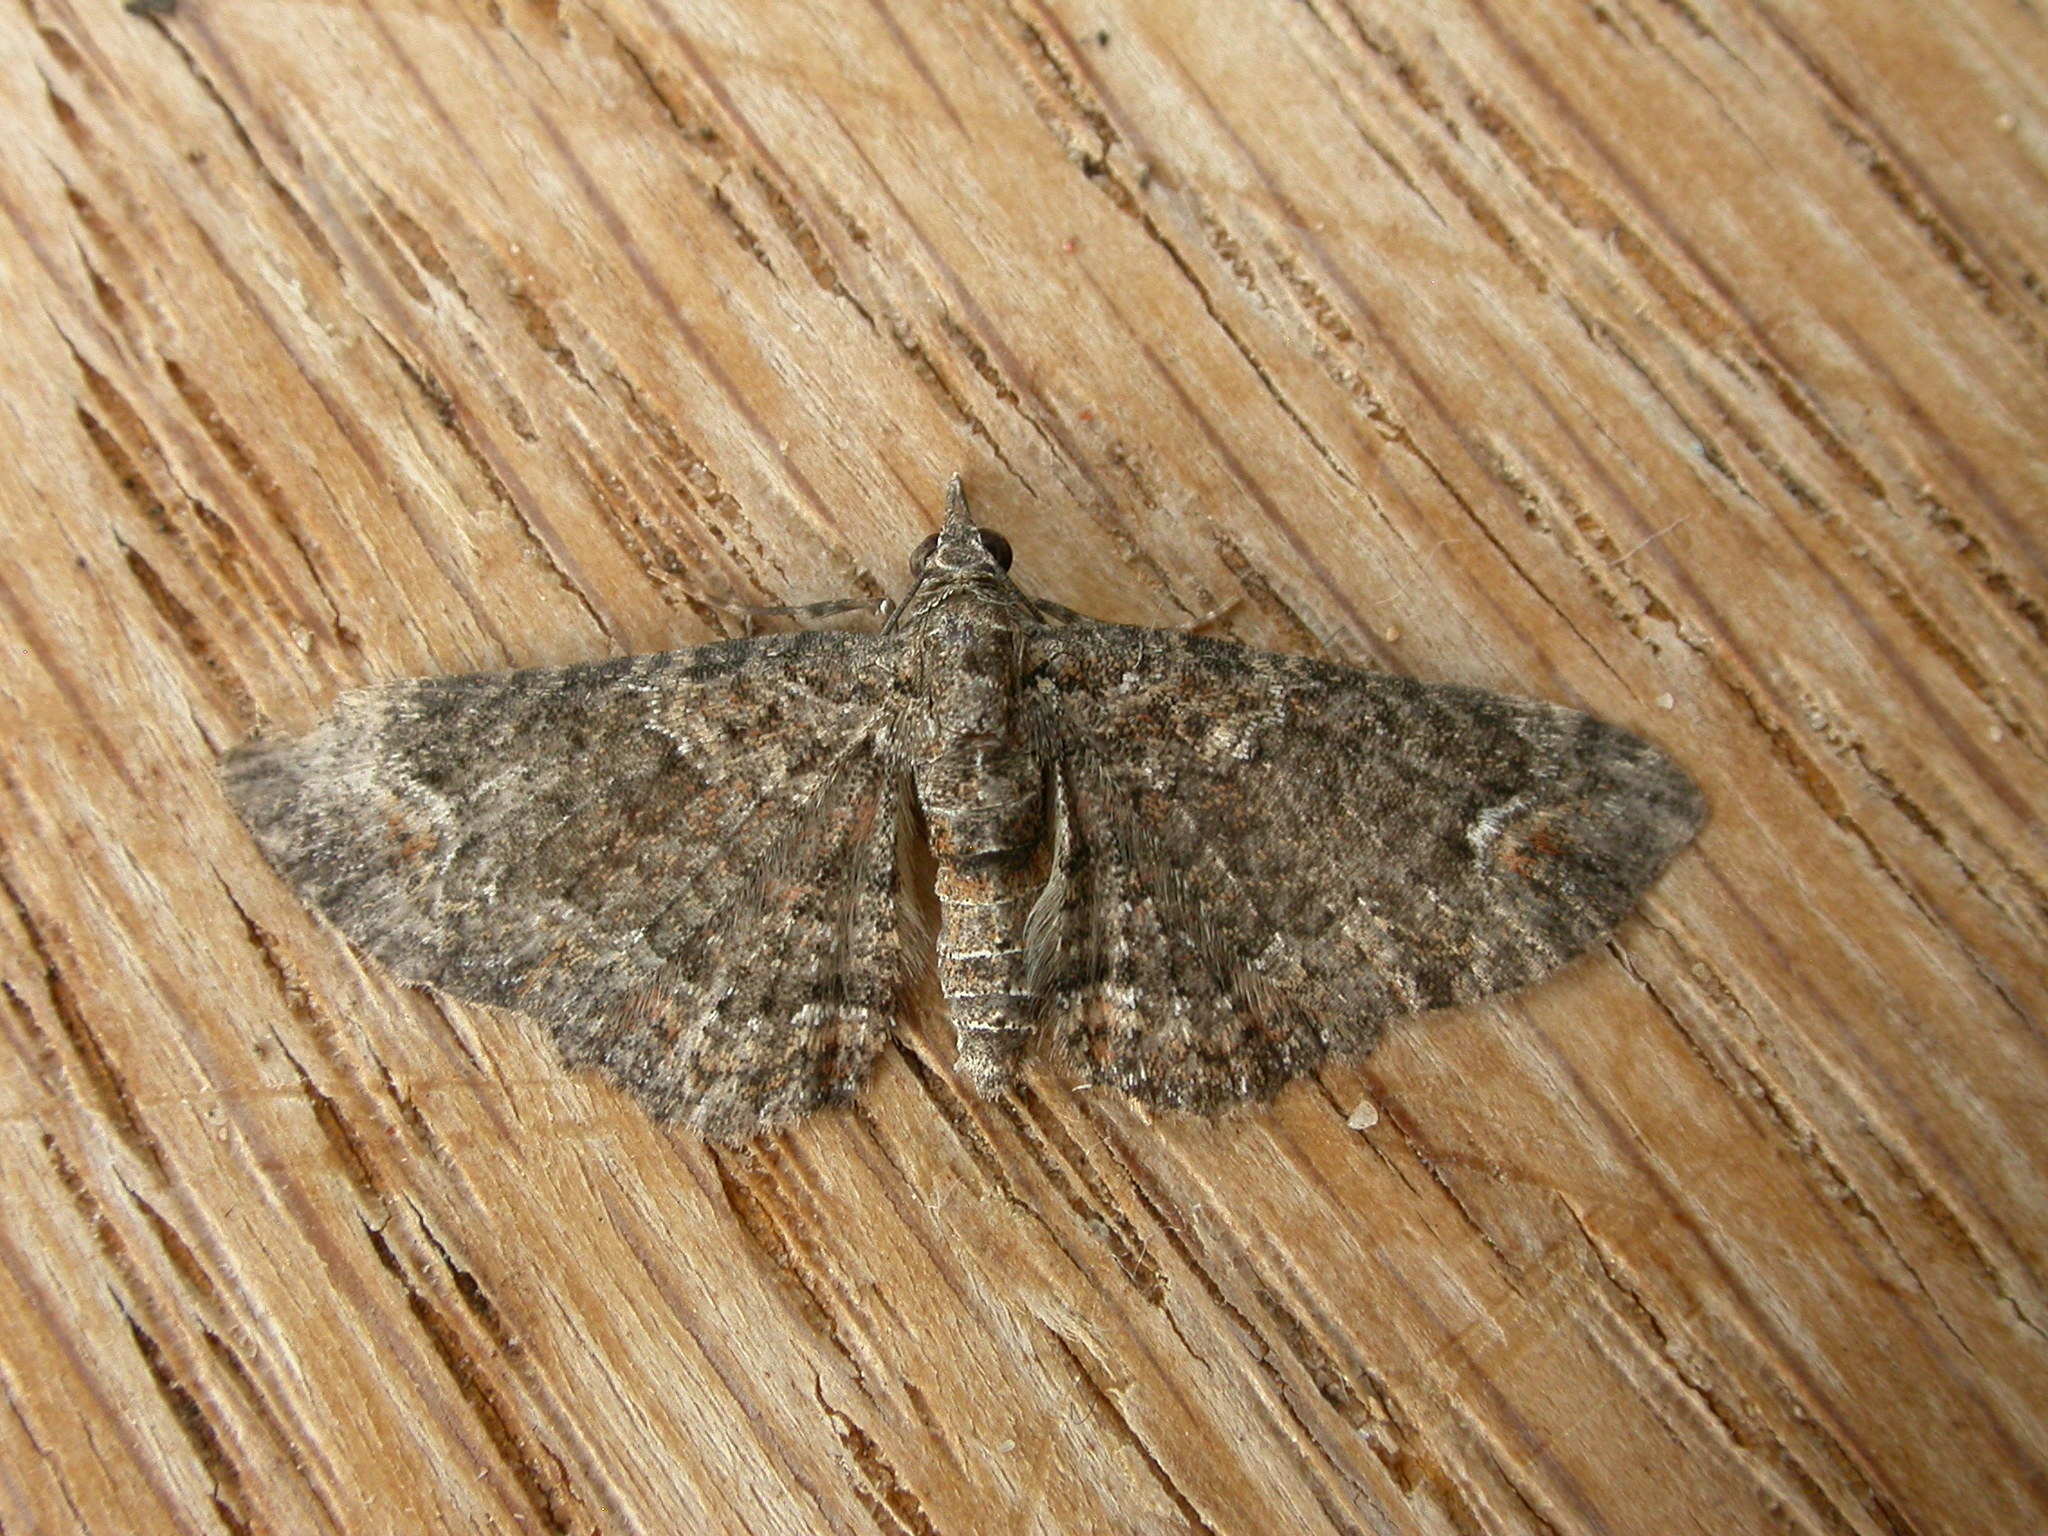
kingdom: Animalia
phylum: Arthropoda
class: Insecta
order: Lepidoptera
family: Geometridae
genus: Pasiphilodes
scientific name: Pasiphilodes testulata
